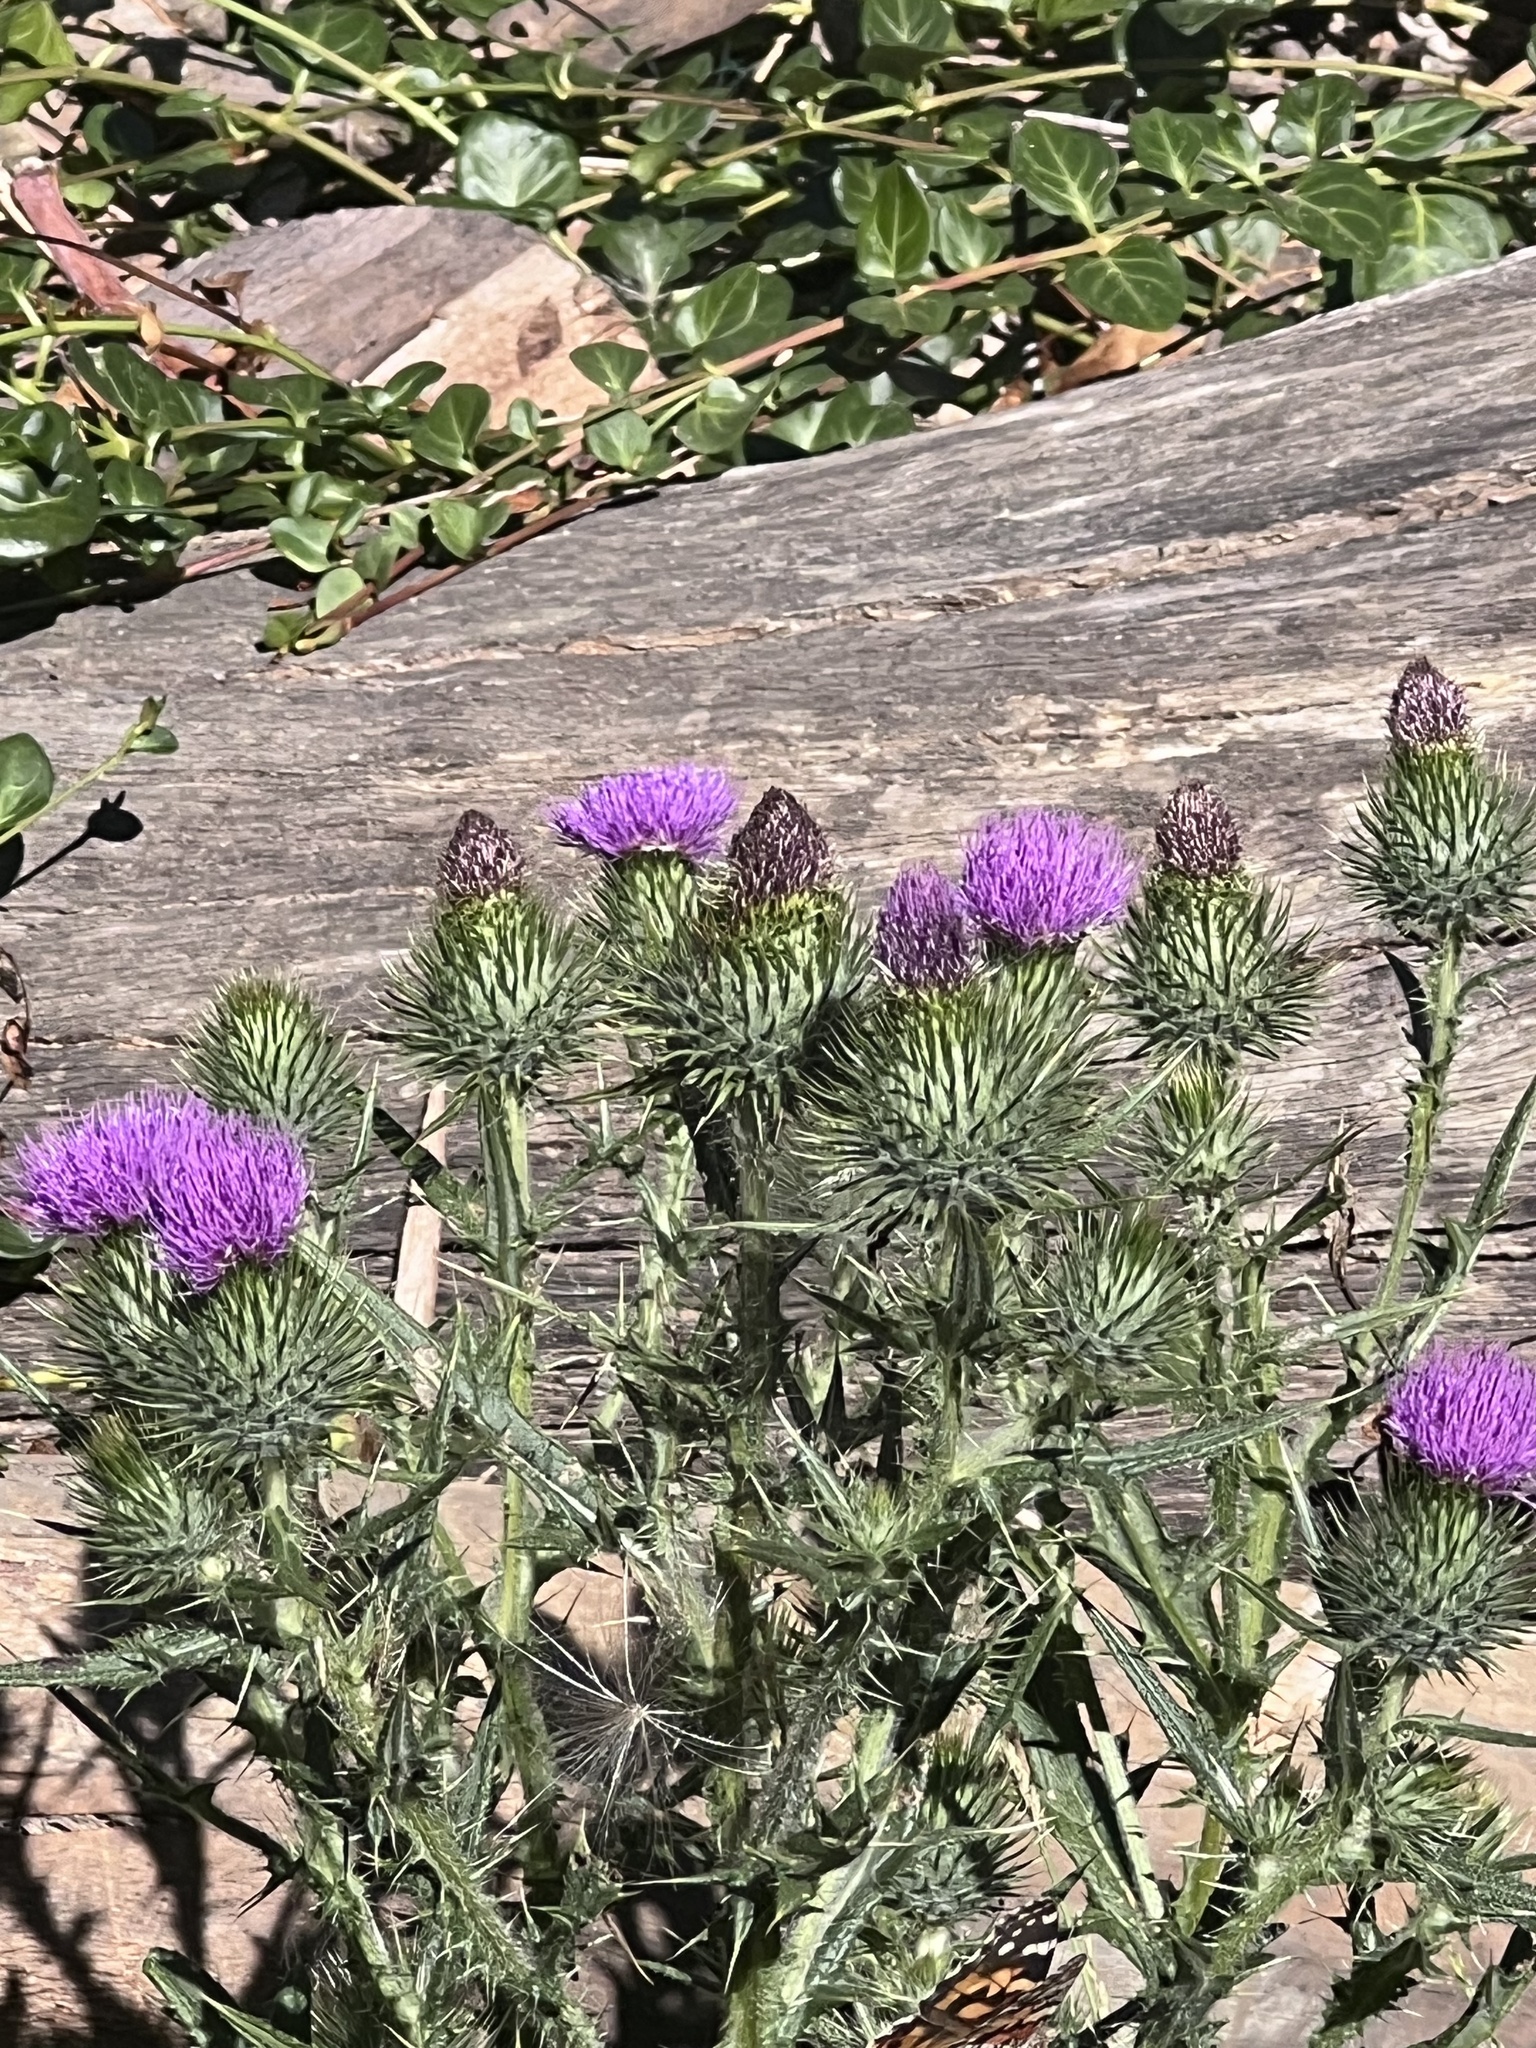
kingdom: Plantae
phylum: Tracheophyta
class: Magnoliopsida
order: Asterales
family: Asteraceae
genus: Cirsium
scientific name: Cirsium vulgare
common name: Bull thistle
